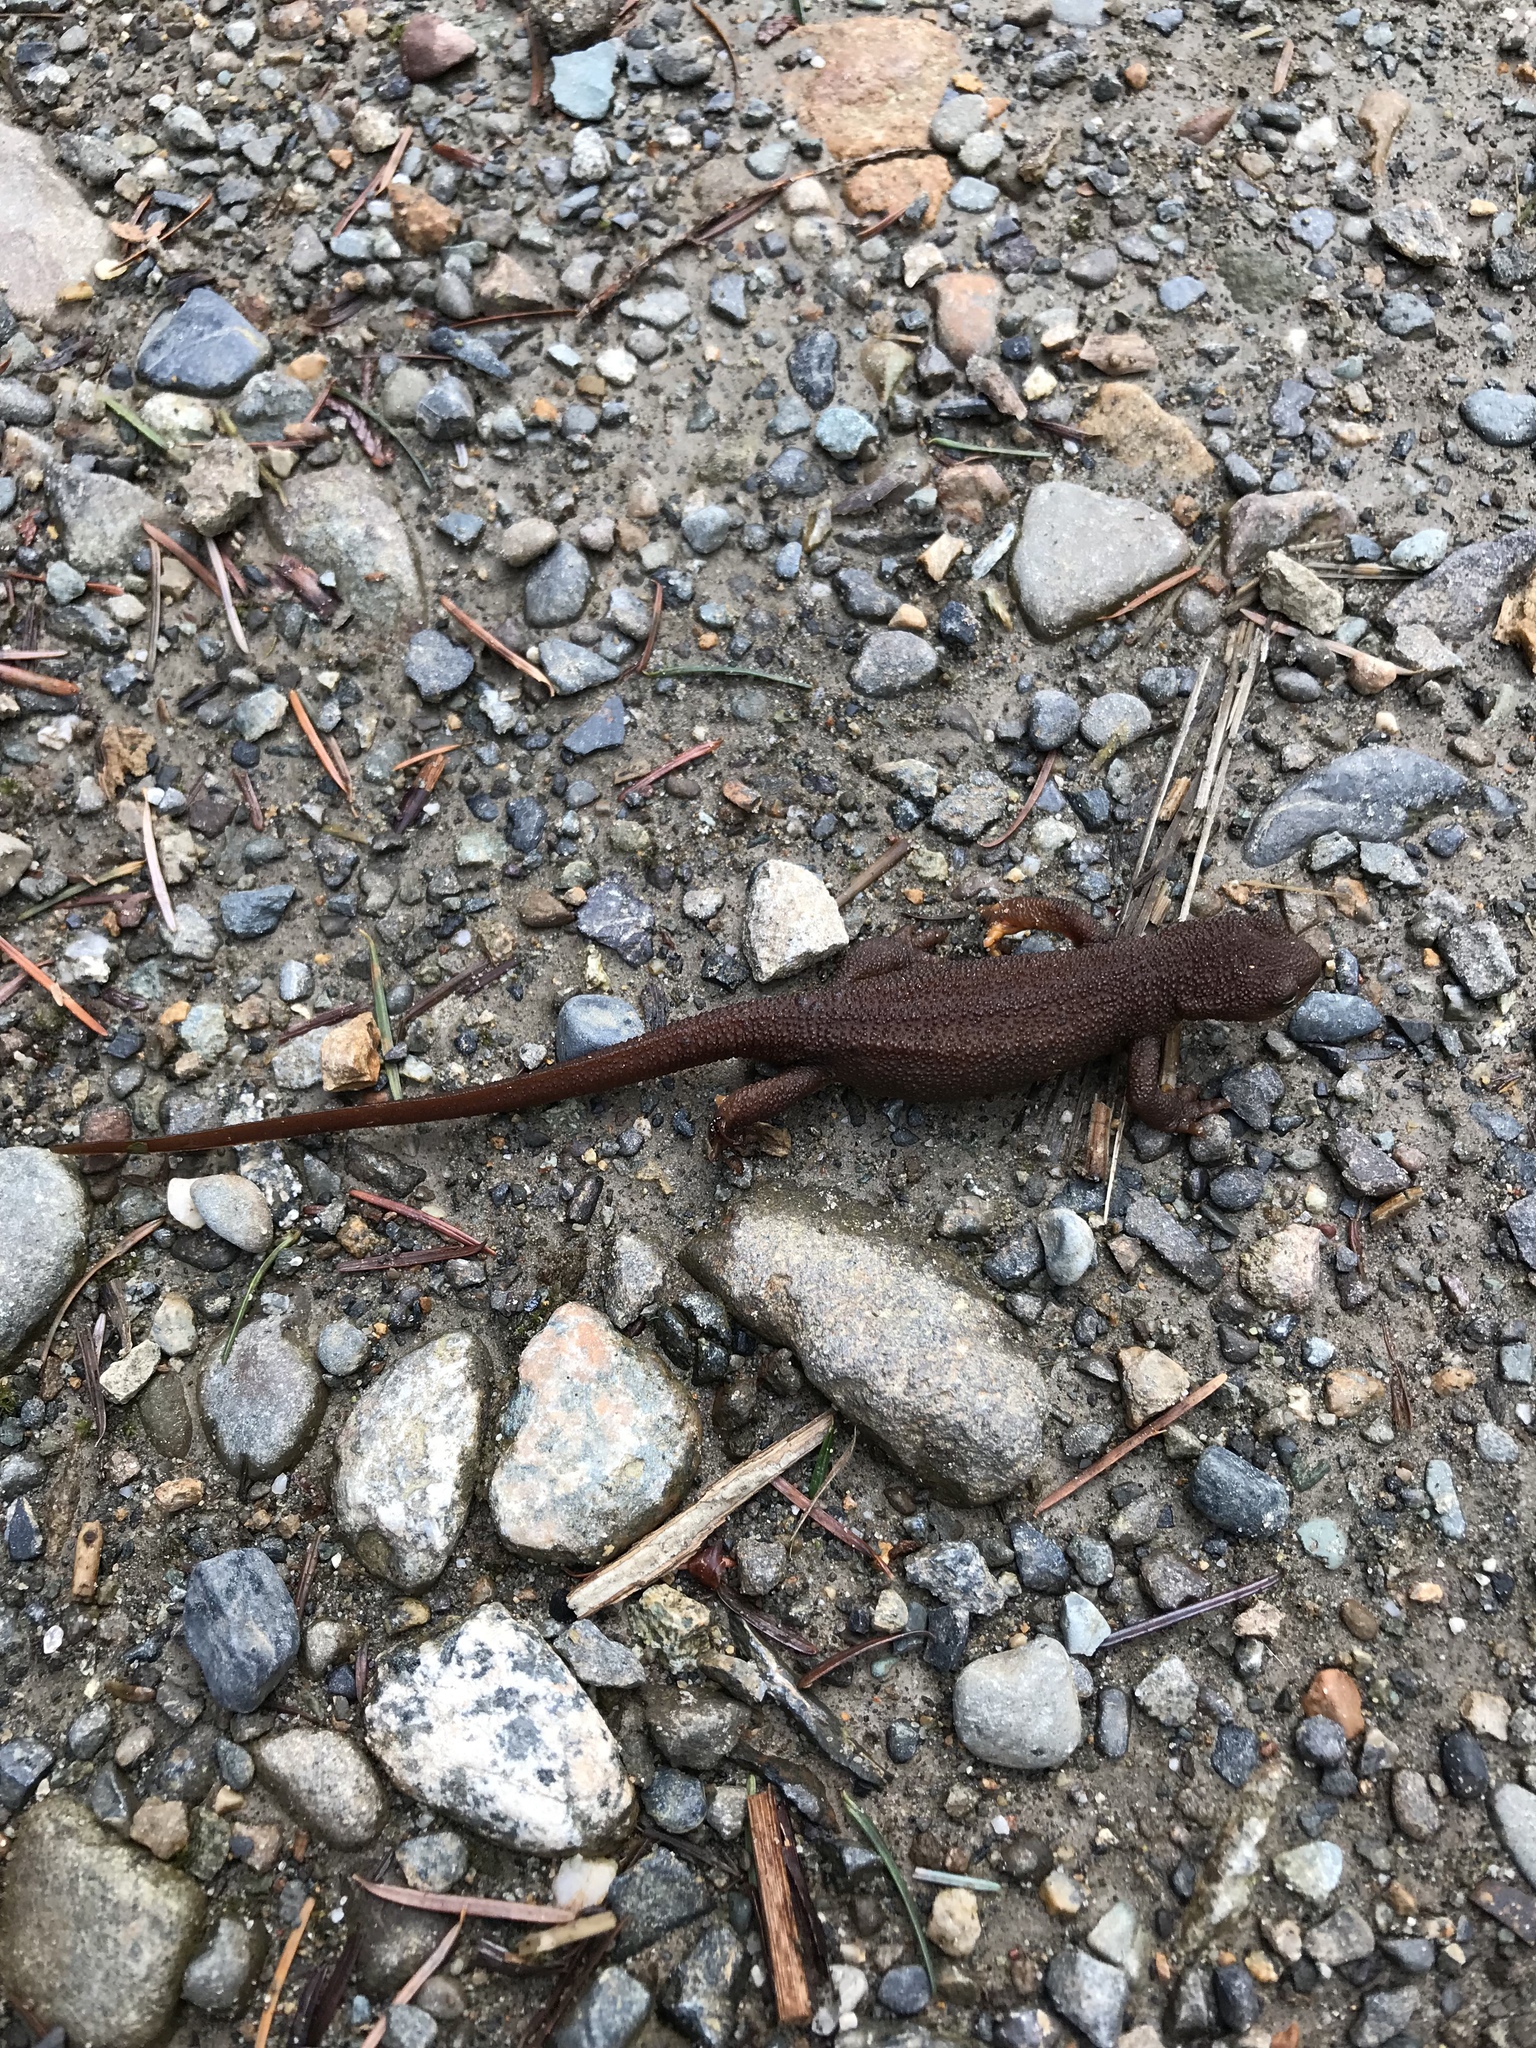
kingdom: Animalia
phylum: Chordata
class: Amphibia
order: Caudata
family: Salamandridae
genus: Taricha
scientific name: Taricha granulosa
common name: Roughskin newt
